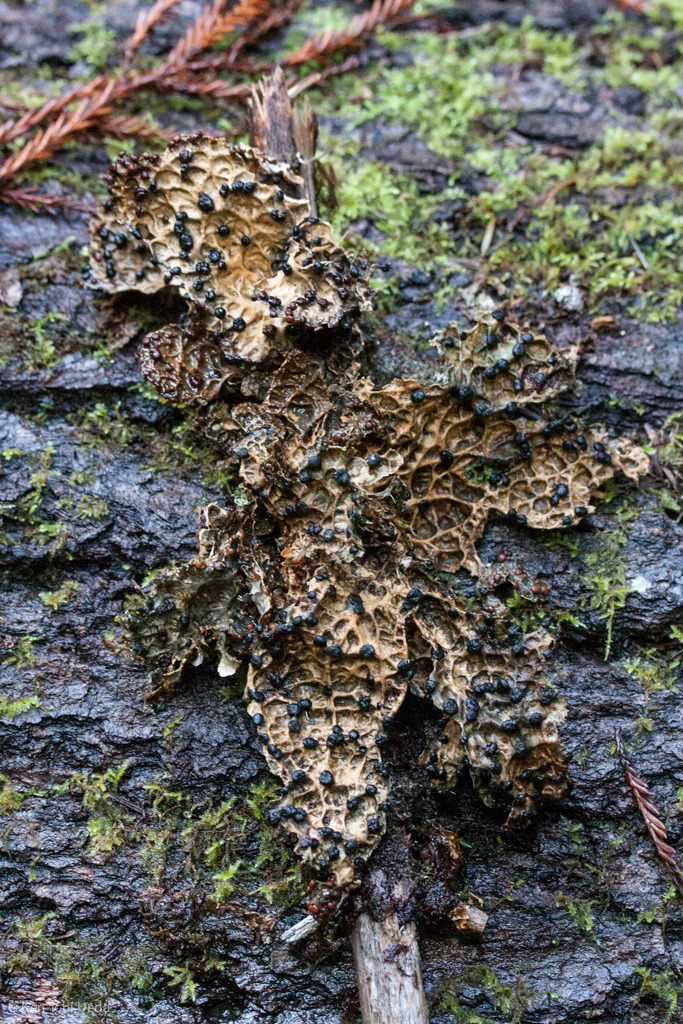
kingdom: Fungi
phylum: Ascomycota
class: Lecanoromycetes
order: Peltigerales
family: Lobariaceae
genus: Lobaria
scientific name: Lobaria anthraspis
